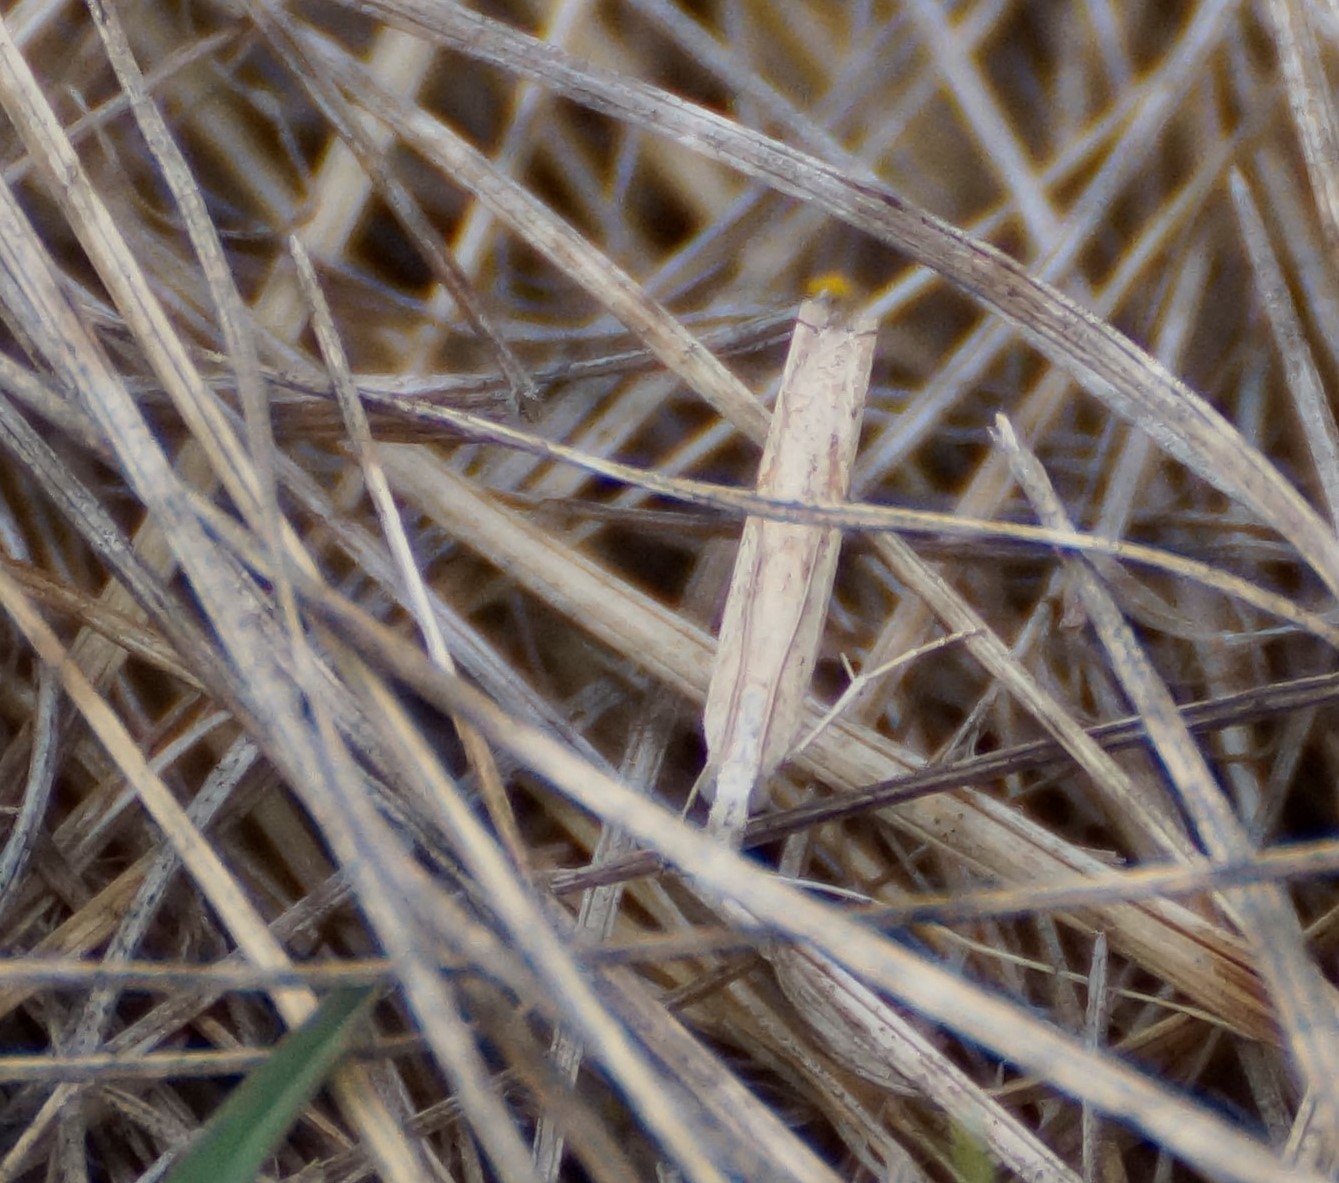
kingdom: Animalia
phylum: Arthropoda
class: Insecta
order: Lepidoptera
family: Pyralidae
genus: Faveria
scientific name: Faveria tritalis
